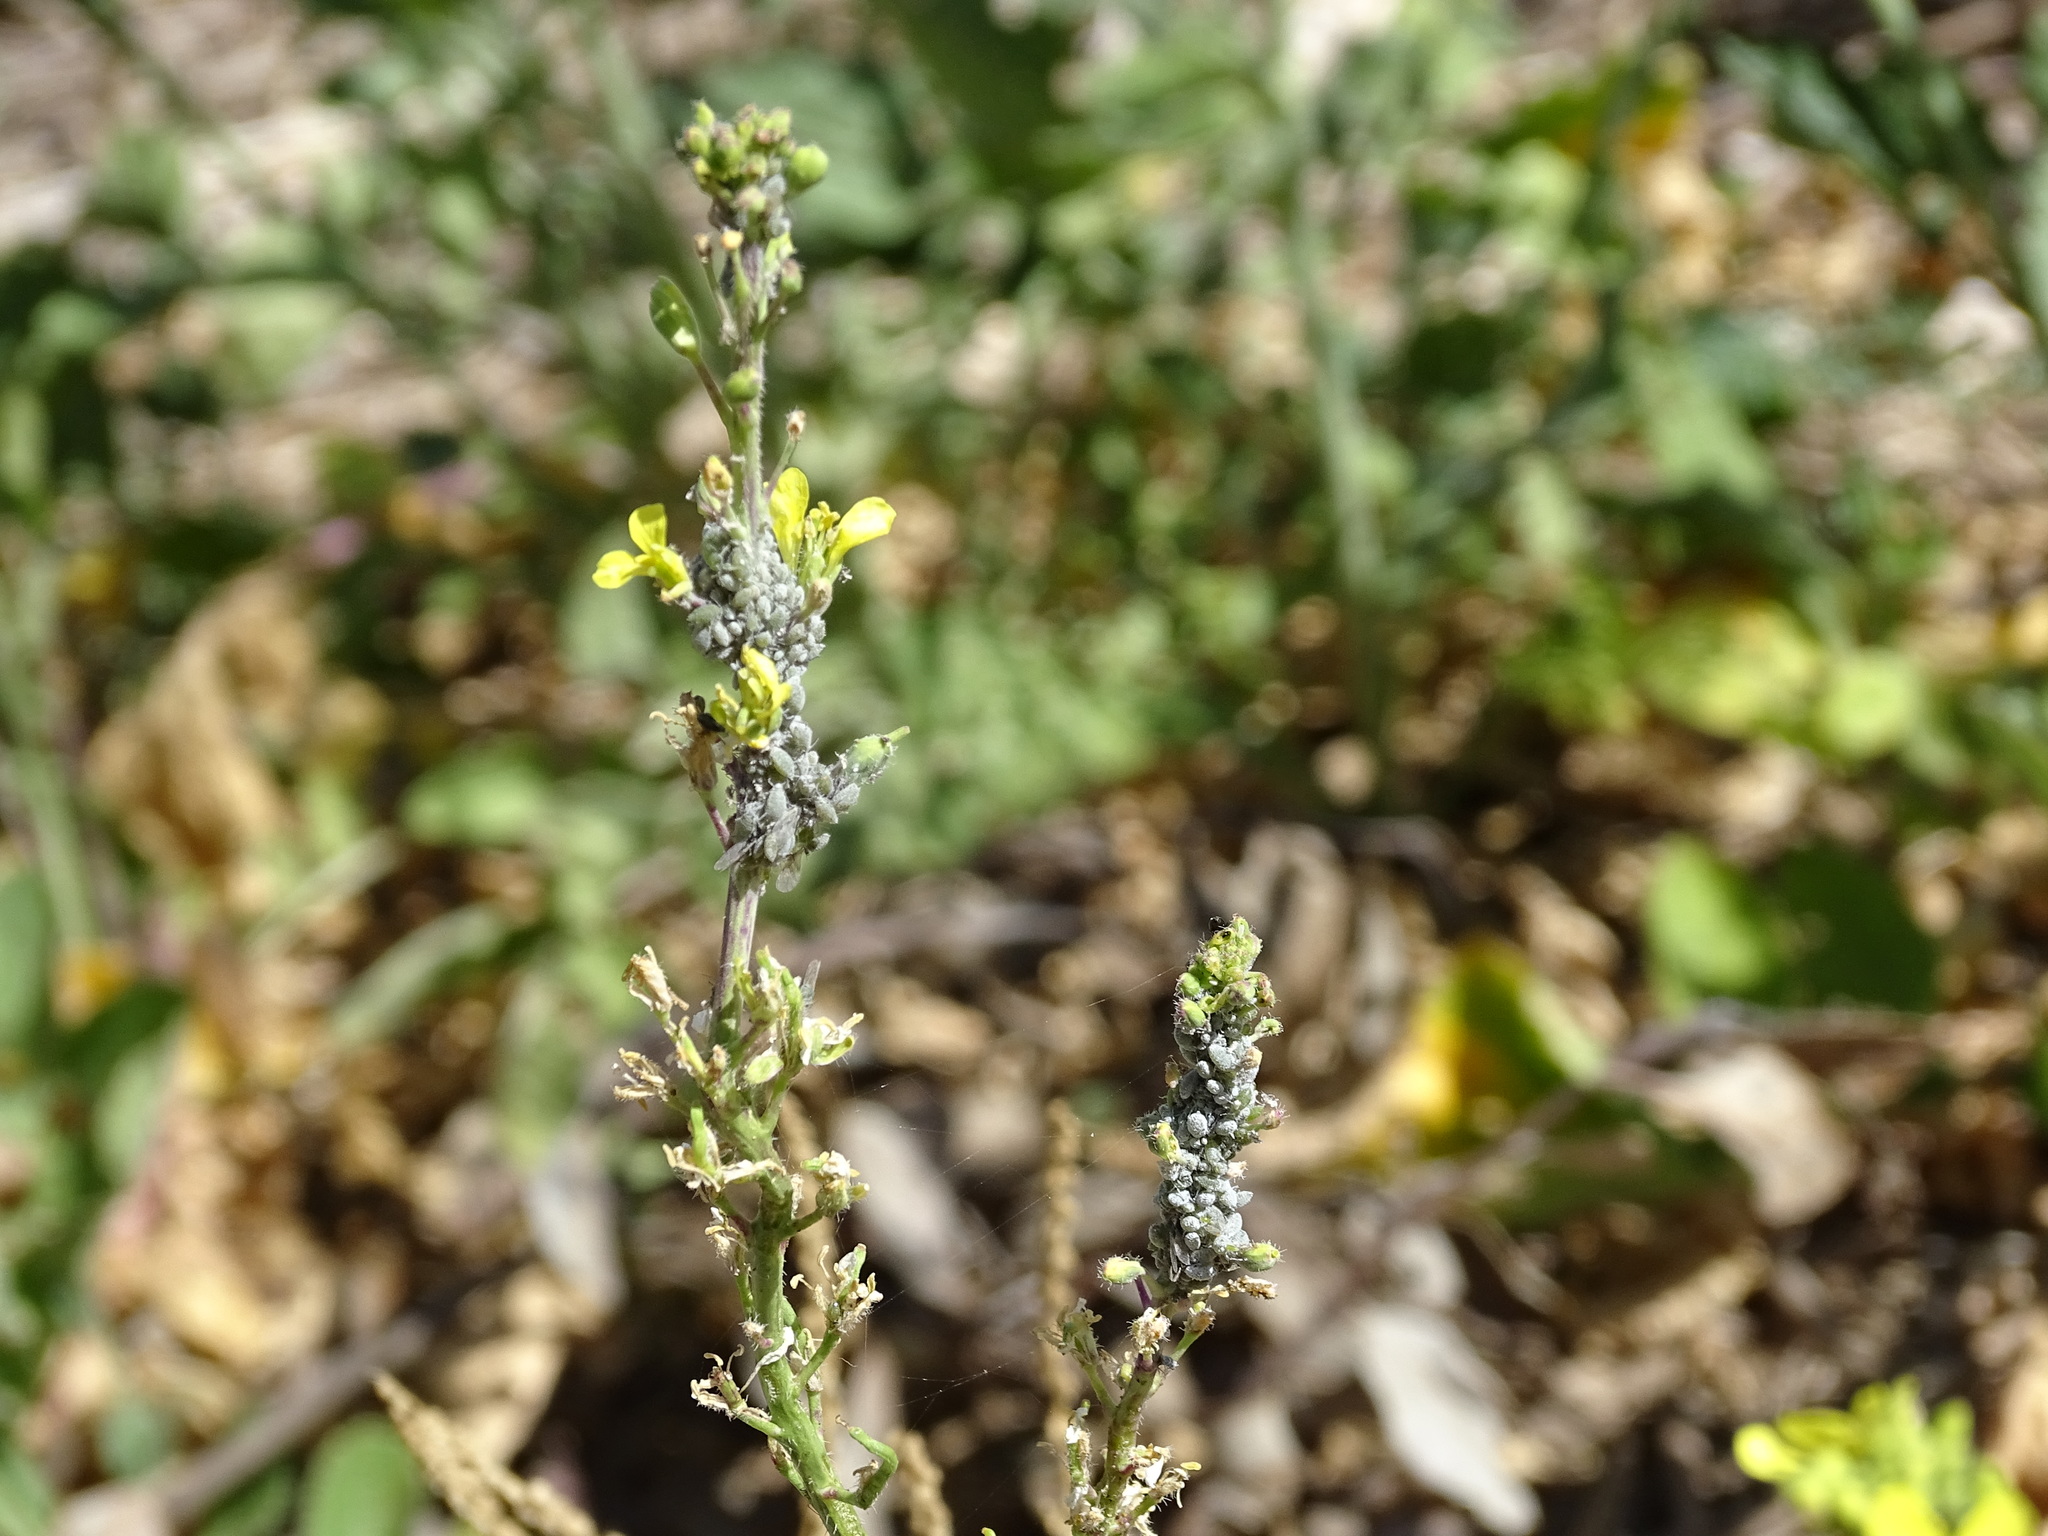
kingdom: Animalia
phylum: Arthropoda
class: Insecta
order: Hemiptera
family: Aphididae
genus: Brevicoryne
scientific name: Brevicoryne brassicae
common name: Cabbage aphid
